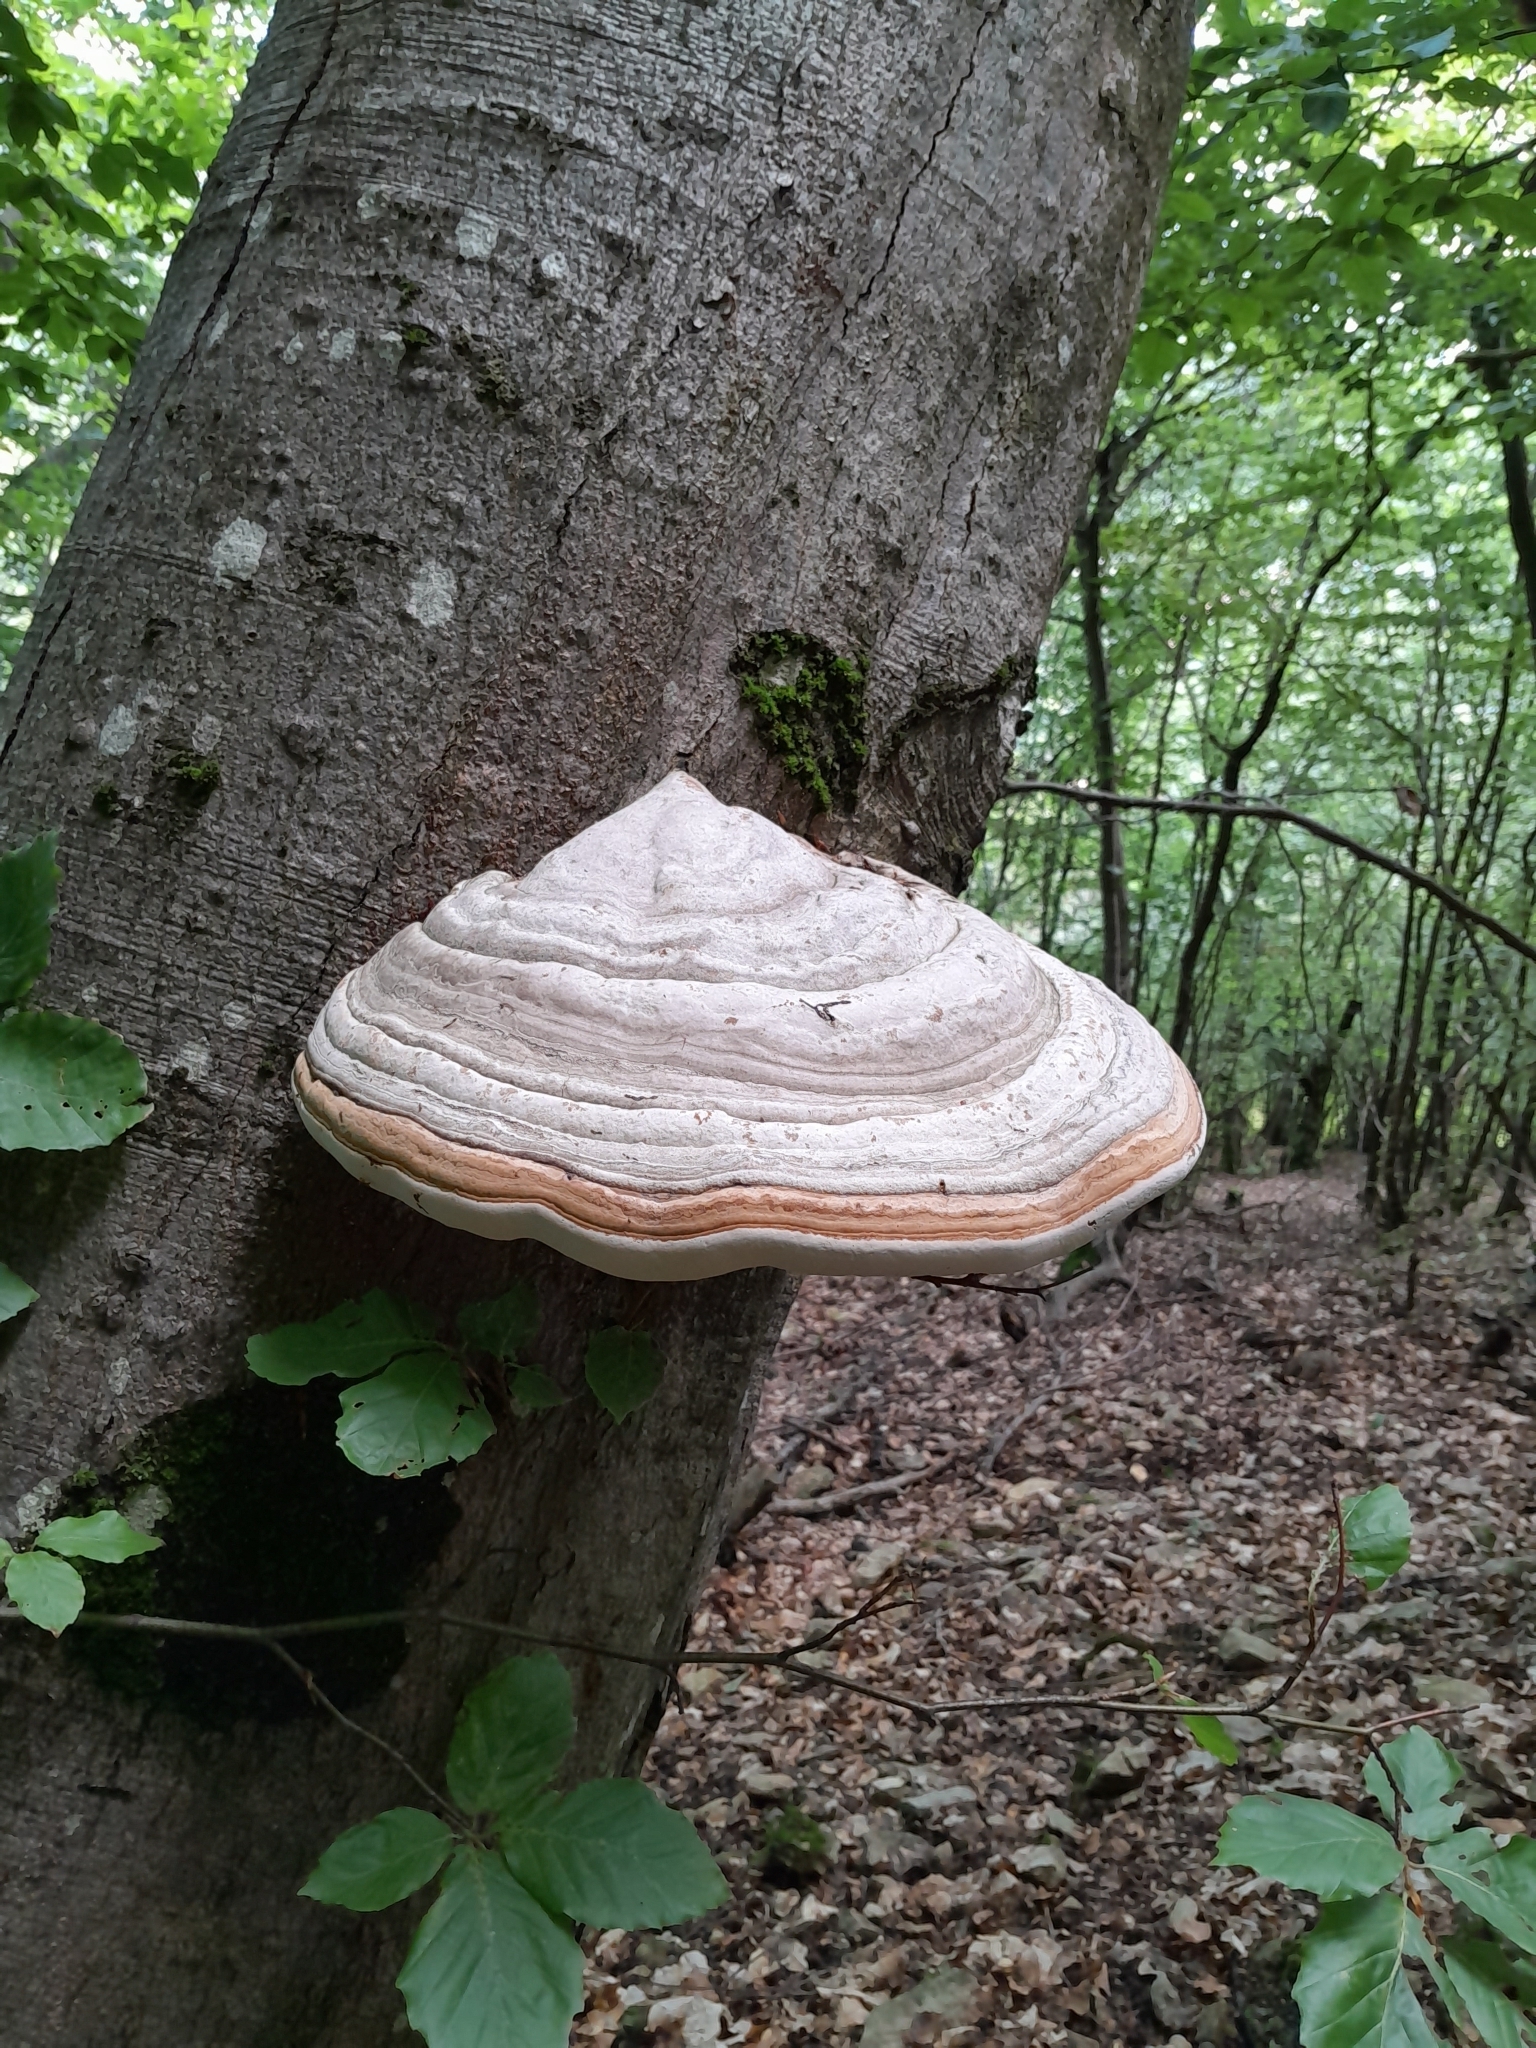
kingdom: Fungi
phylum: Basidiomycota
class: Agaricomycetes
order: Polyporales
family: Polyporaceae
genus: Fomes
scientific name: Fomes fomentarius
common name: Hoof fungus
